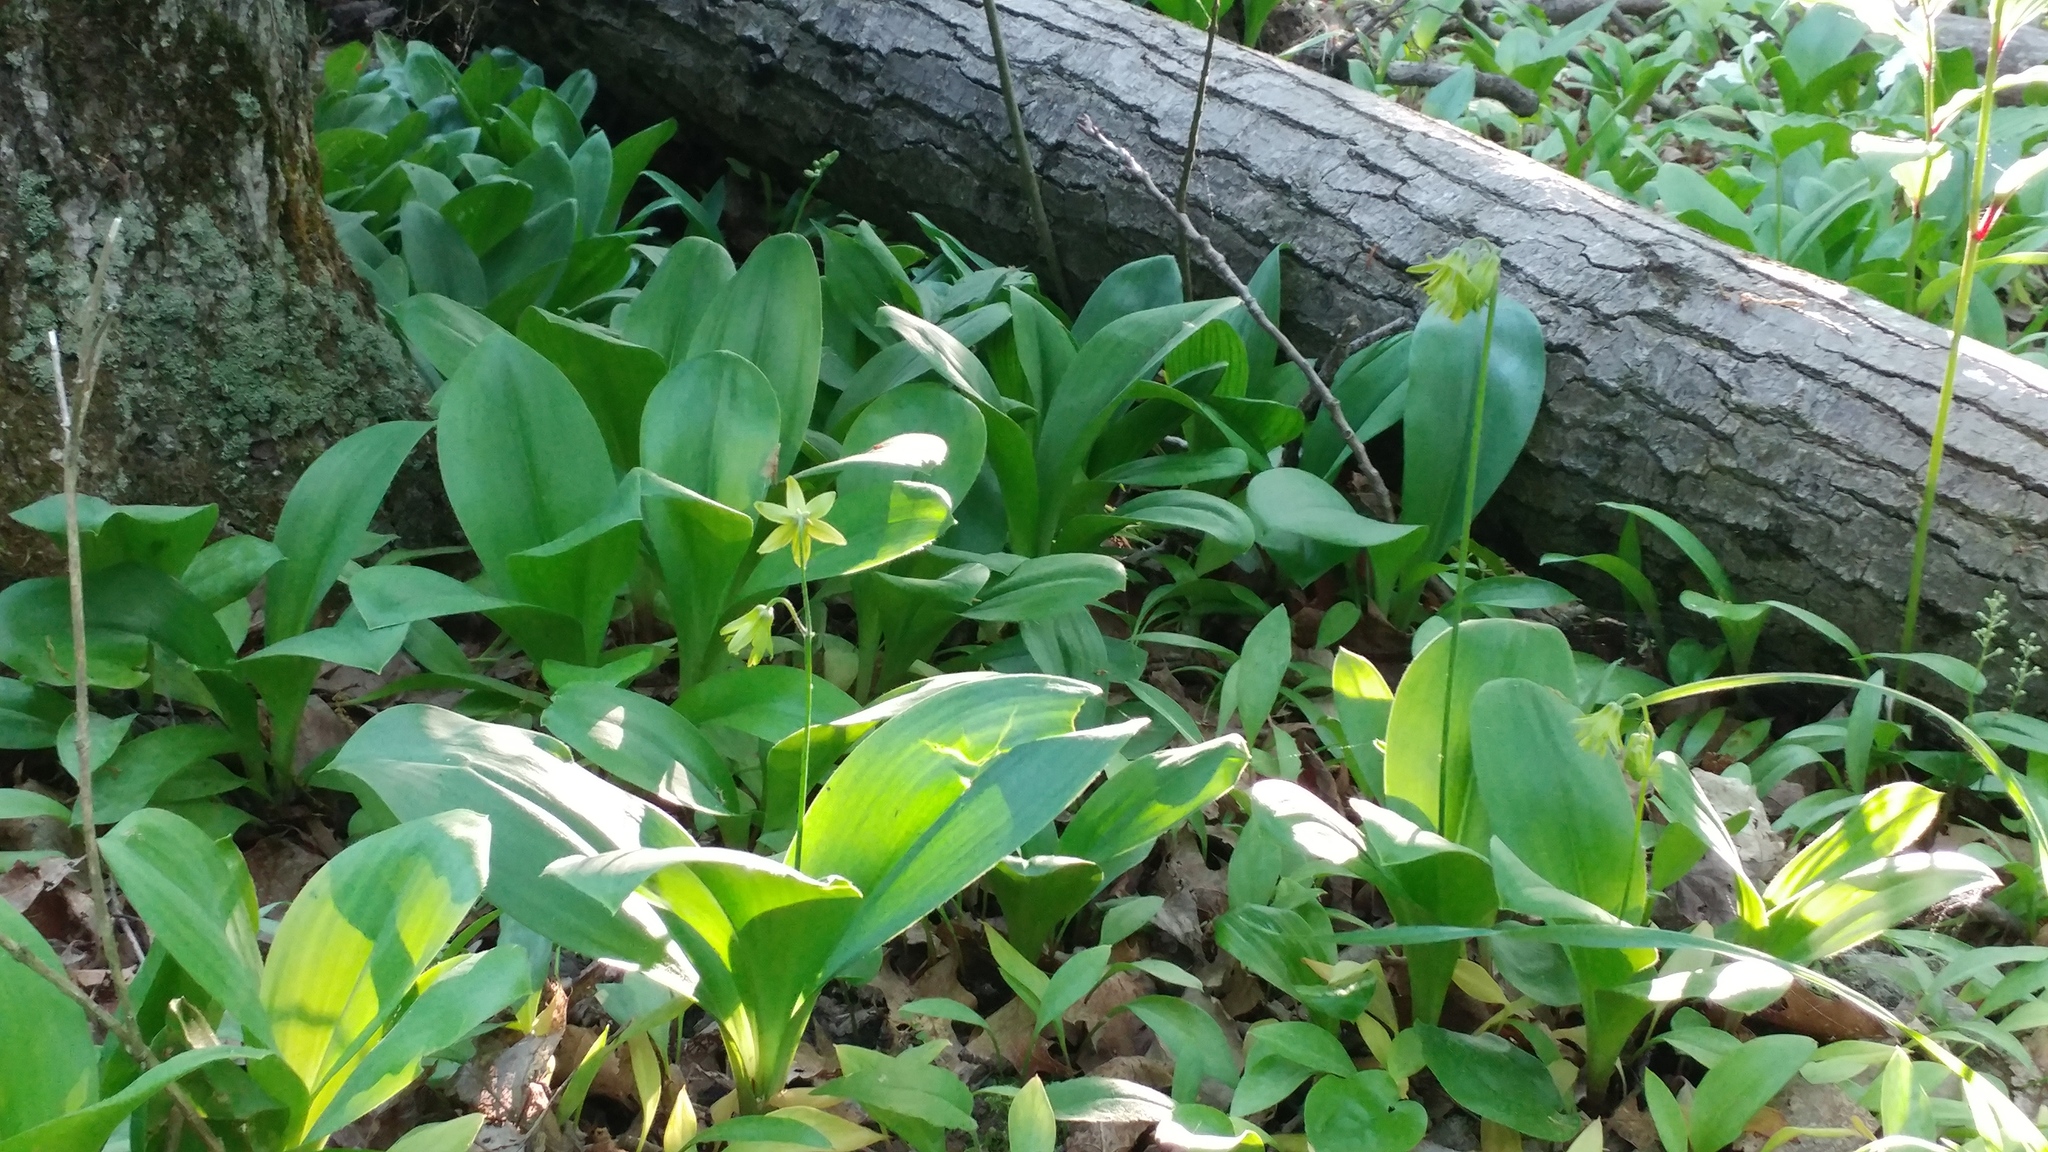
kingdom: Plantae
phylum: Tracheophyta
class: Liliopsida
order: Liliales
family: Liliaceae
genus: Clintonia
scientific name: Clintonia borealis
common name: Yellow clintonia
